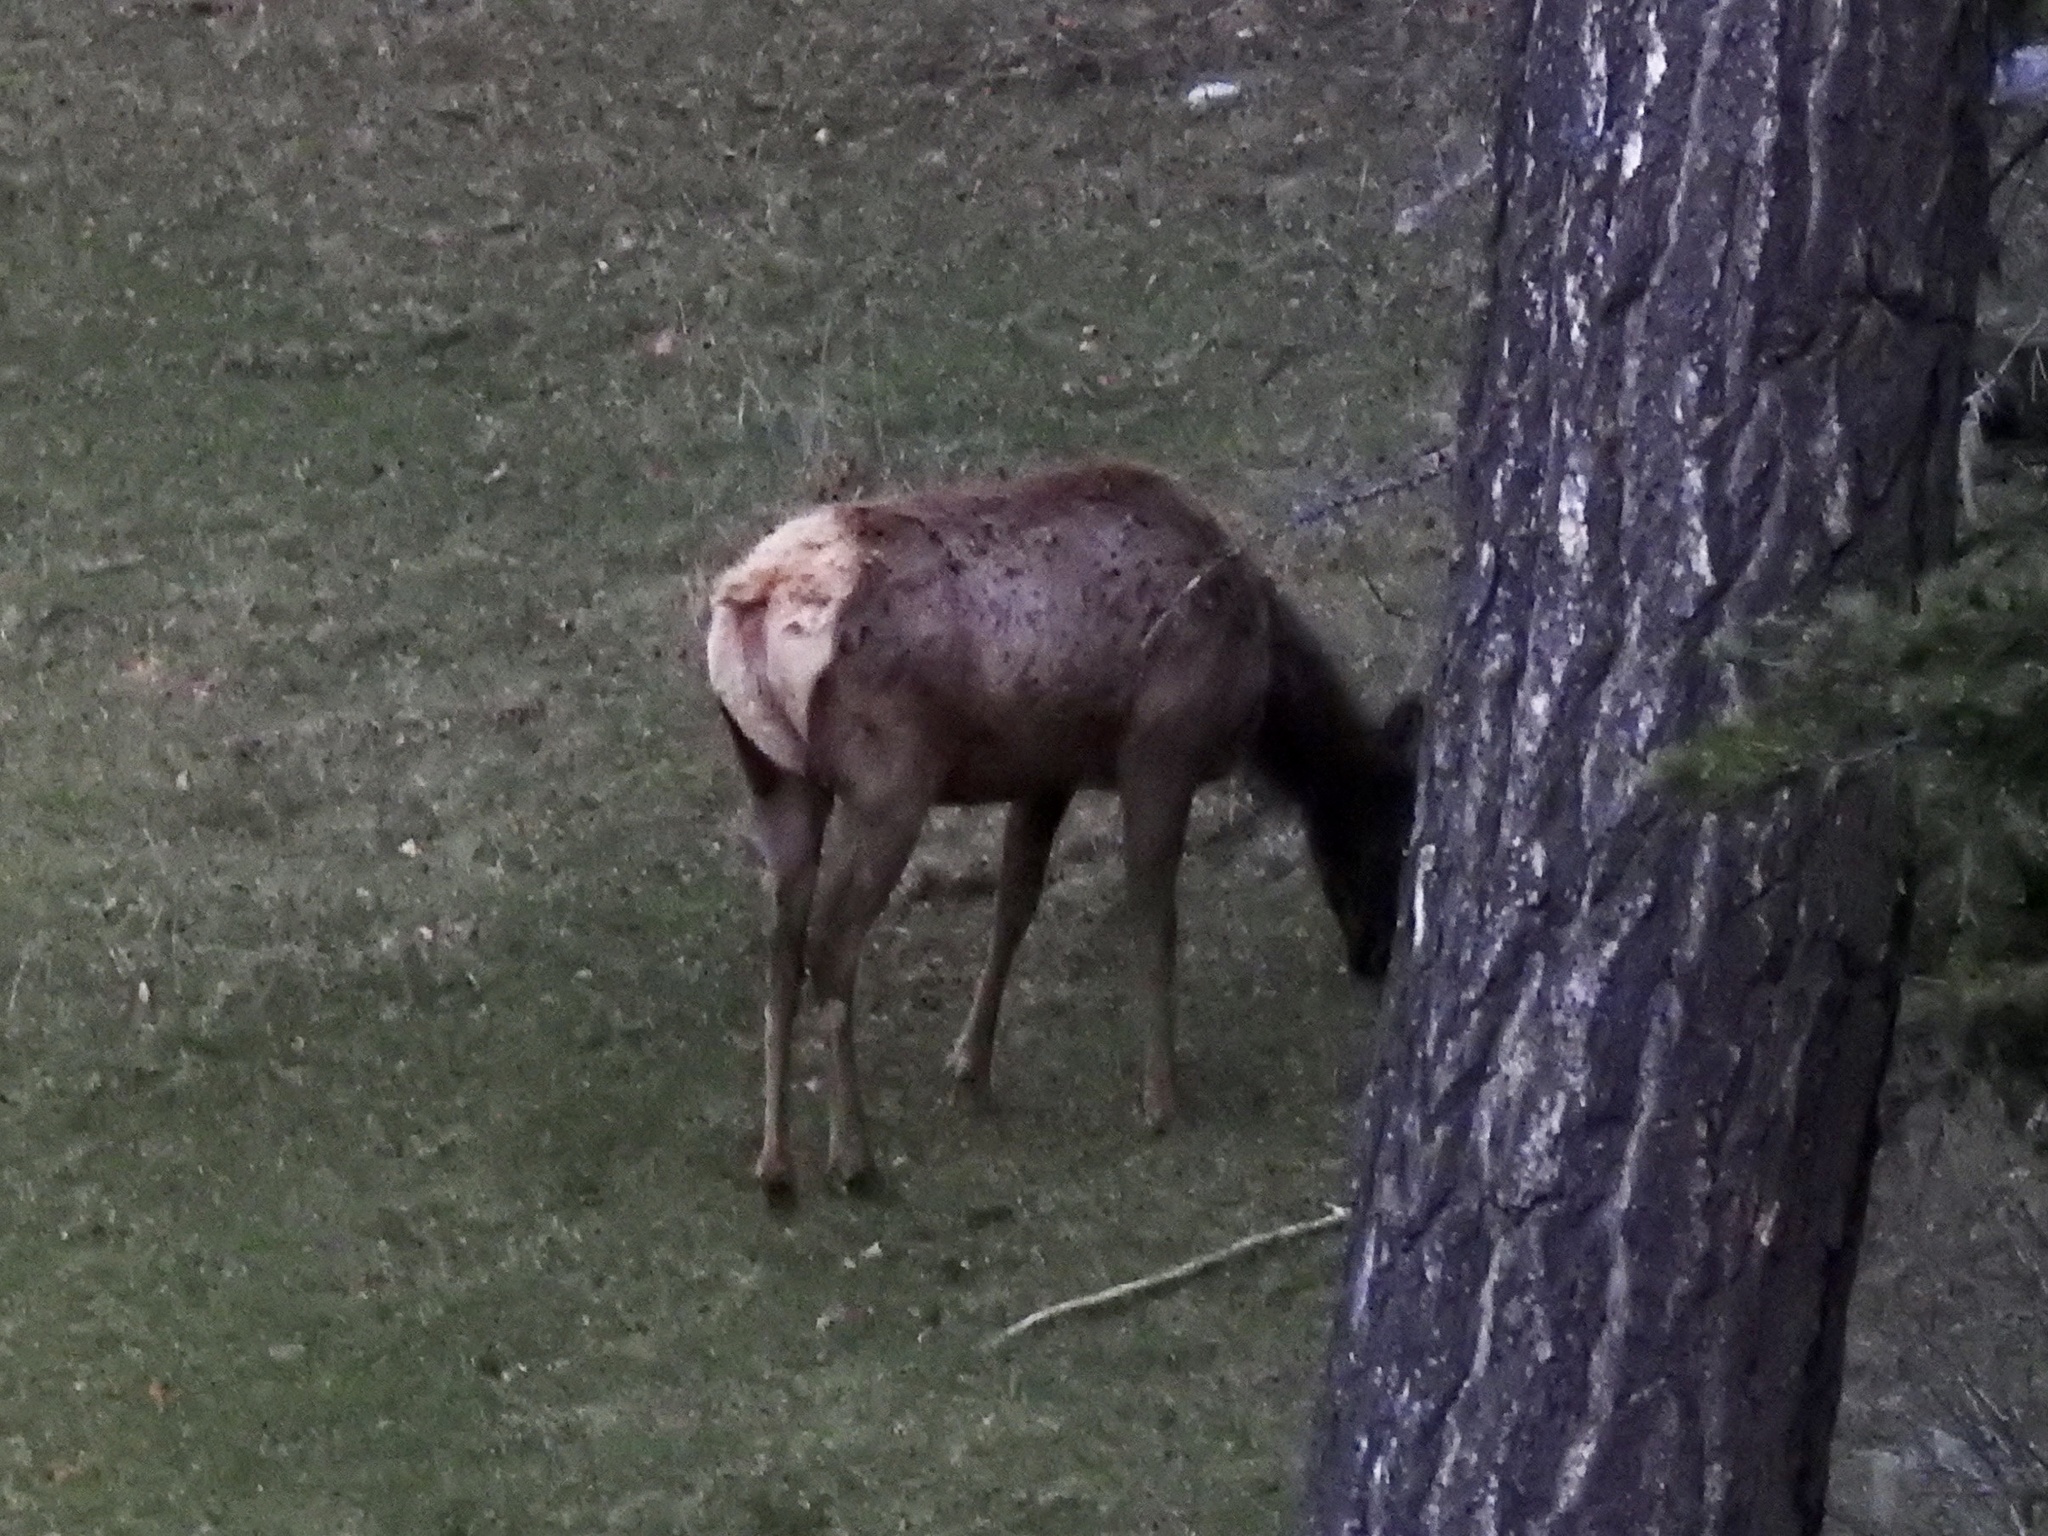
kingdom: Animalia
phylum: Chordata
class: Mammalia
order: Artiodactyla
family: Cervidae
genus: Cervus
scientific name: Cervus elaphus
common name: Red deer
